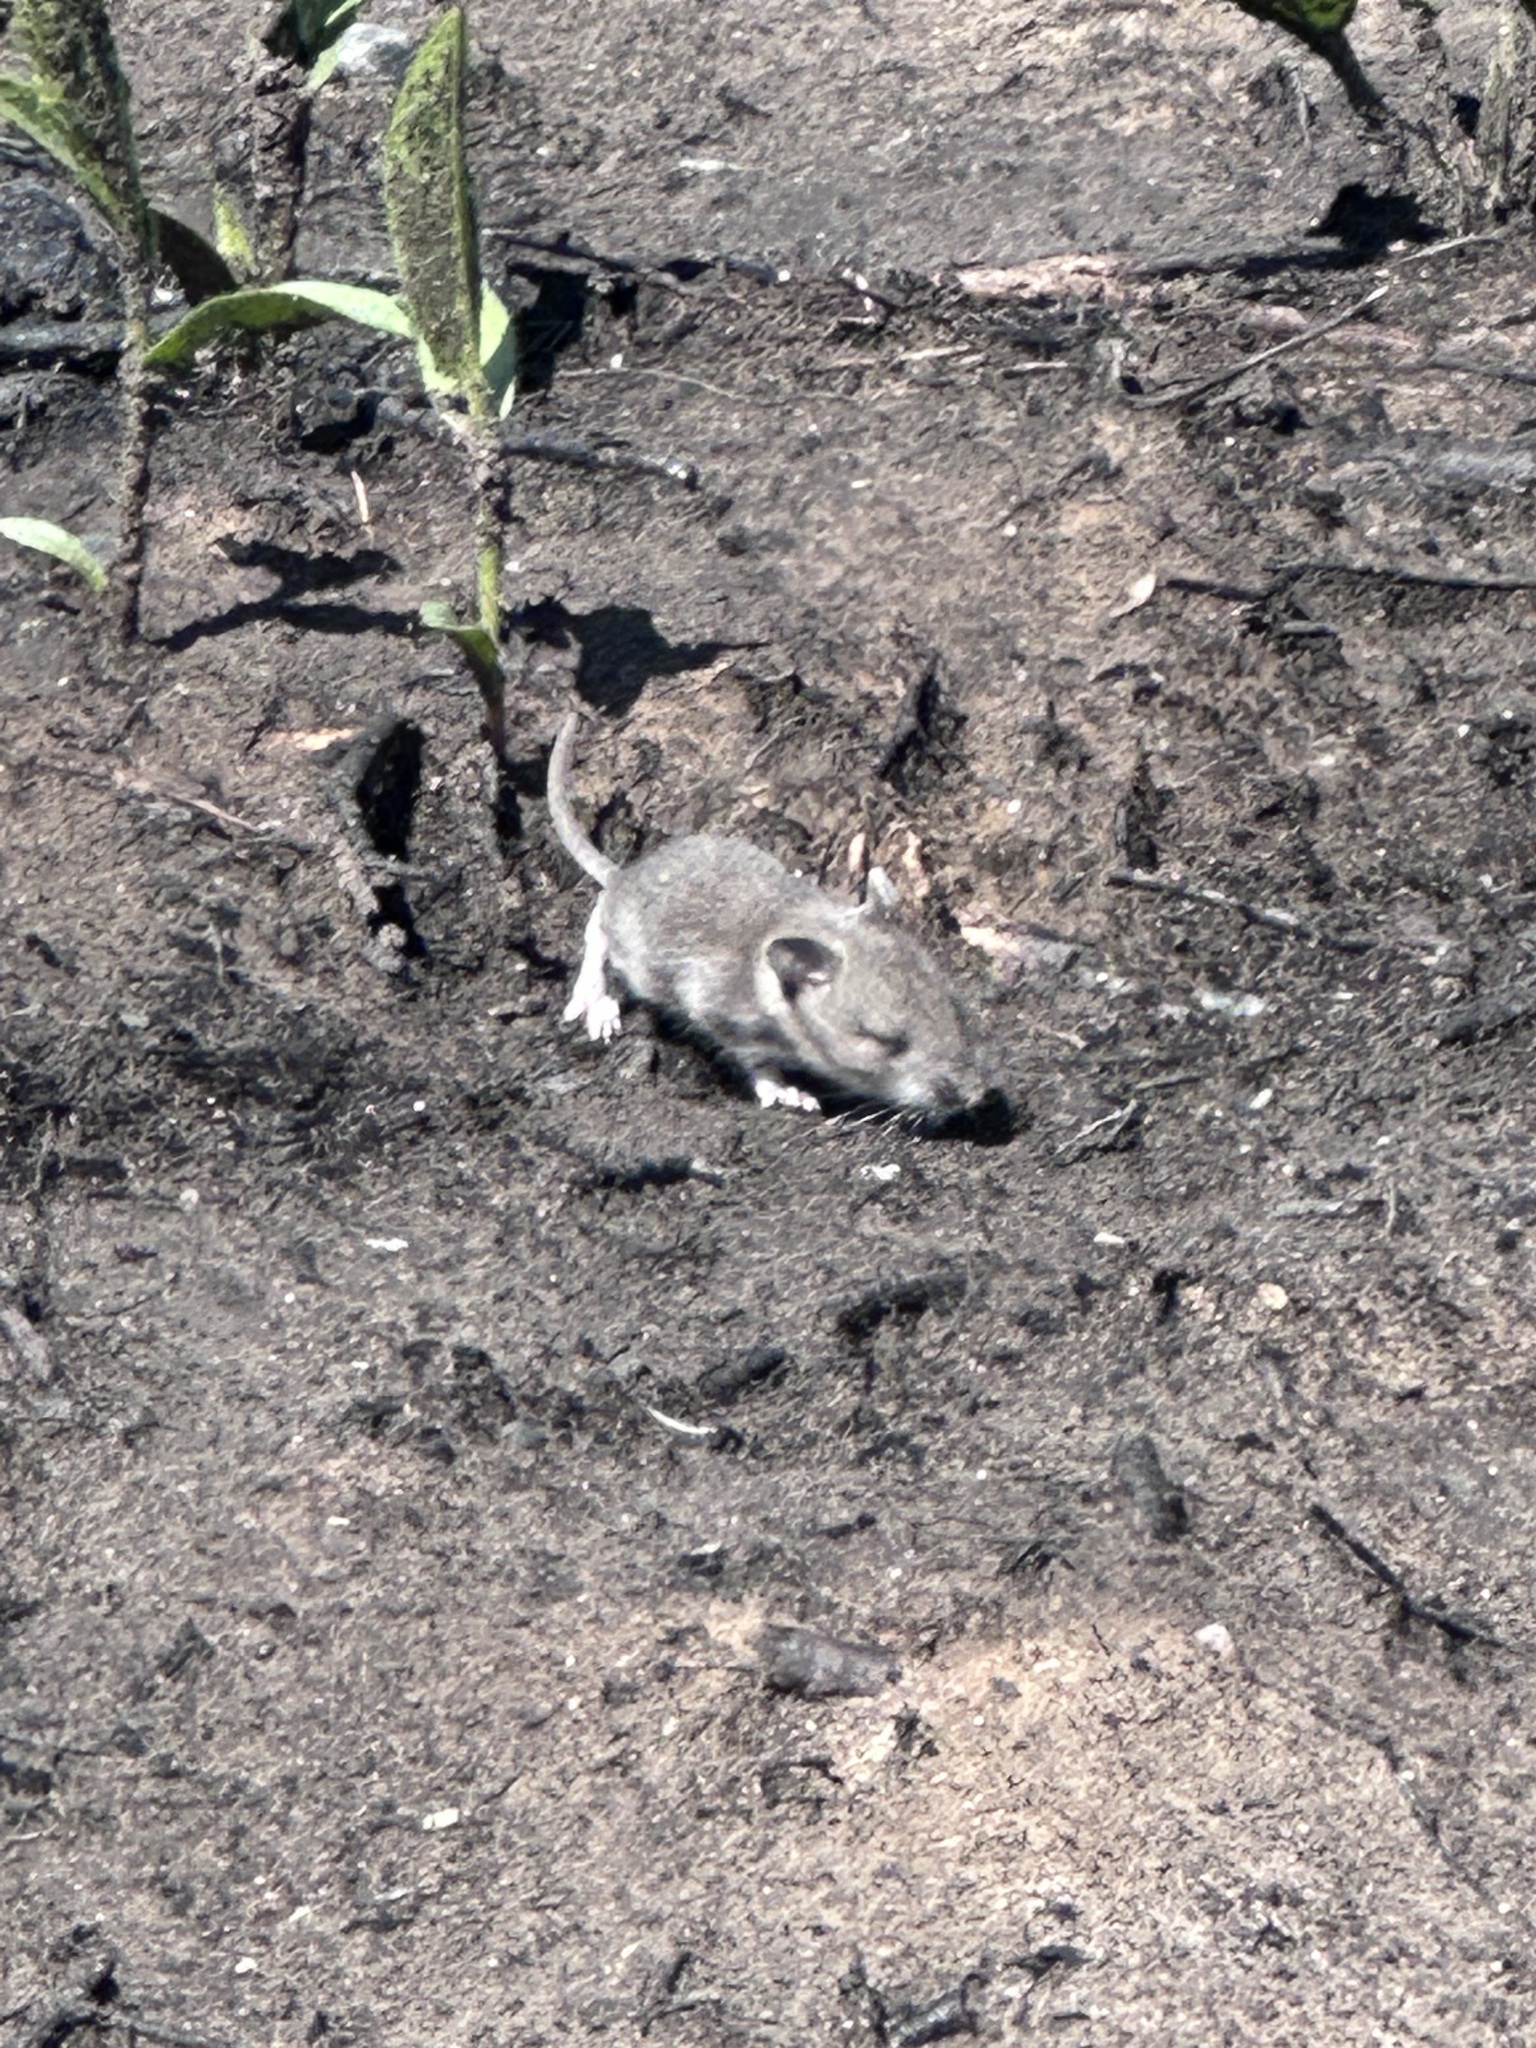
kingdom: Animalia
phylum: Chordata
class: Mammalia
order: Rodentia
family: Cricetidae
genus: Peromyscus
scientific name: Peromyscus maniculatus
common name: Deer mouse
